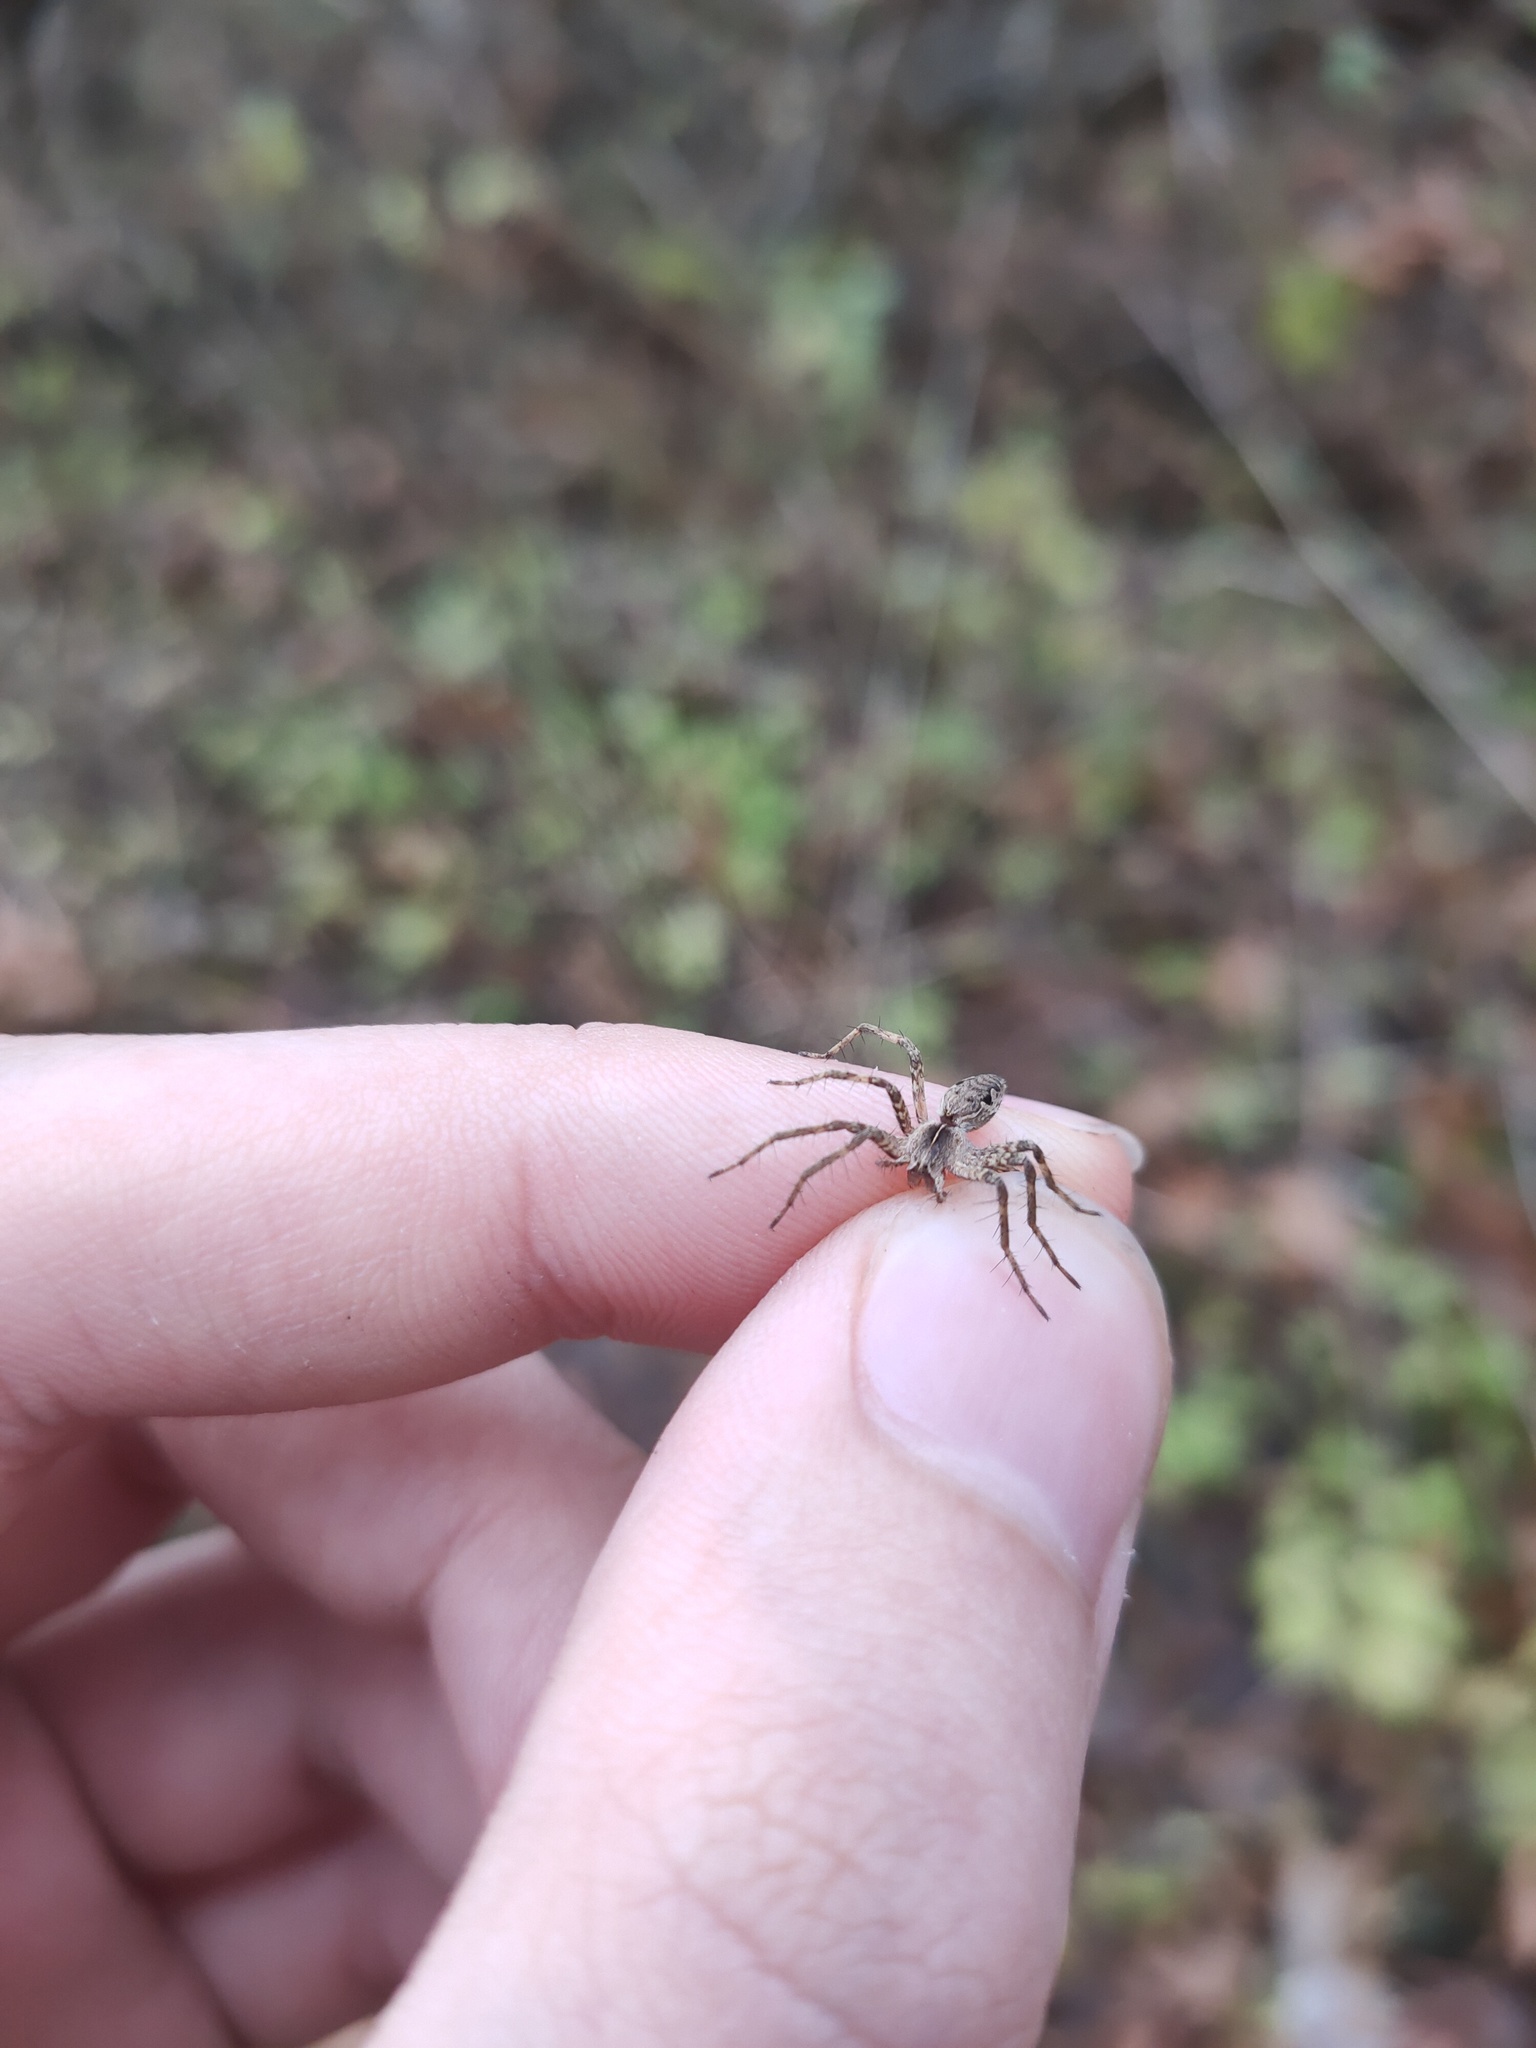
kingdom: Animalia
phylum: Arthropoda
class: Arachnida
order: Araneae
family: Pisauridae
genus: Pisaura
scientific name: Pisaura mirabilis
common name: Tent spider
